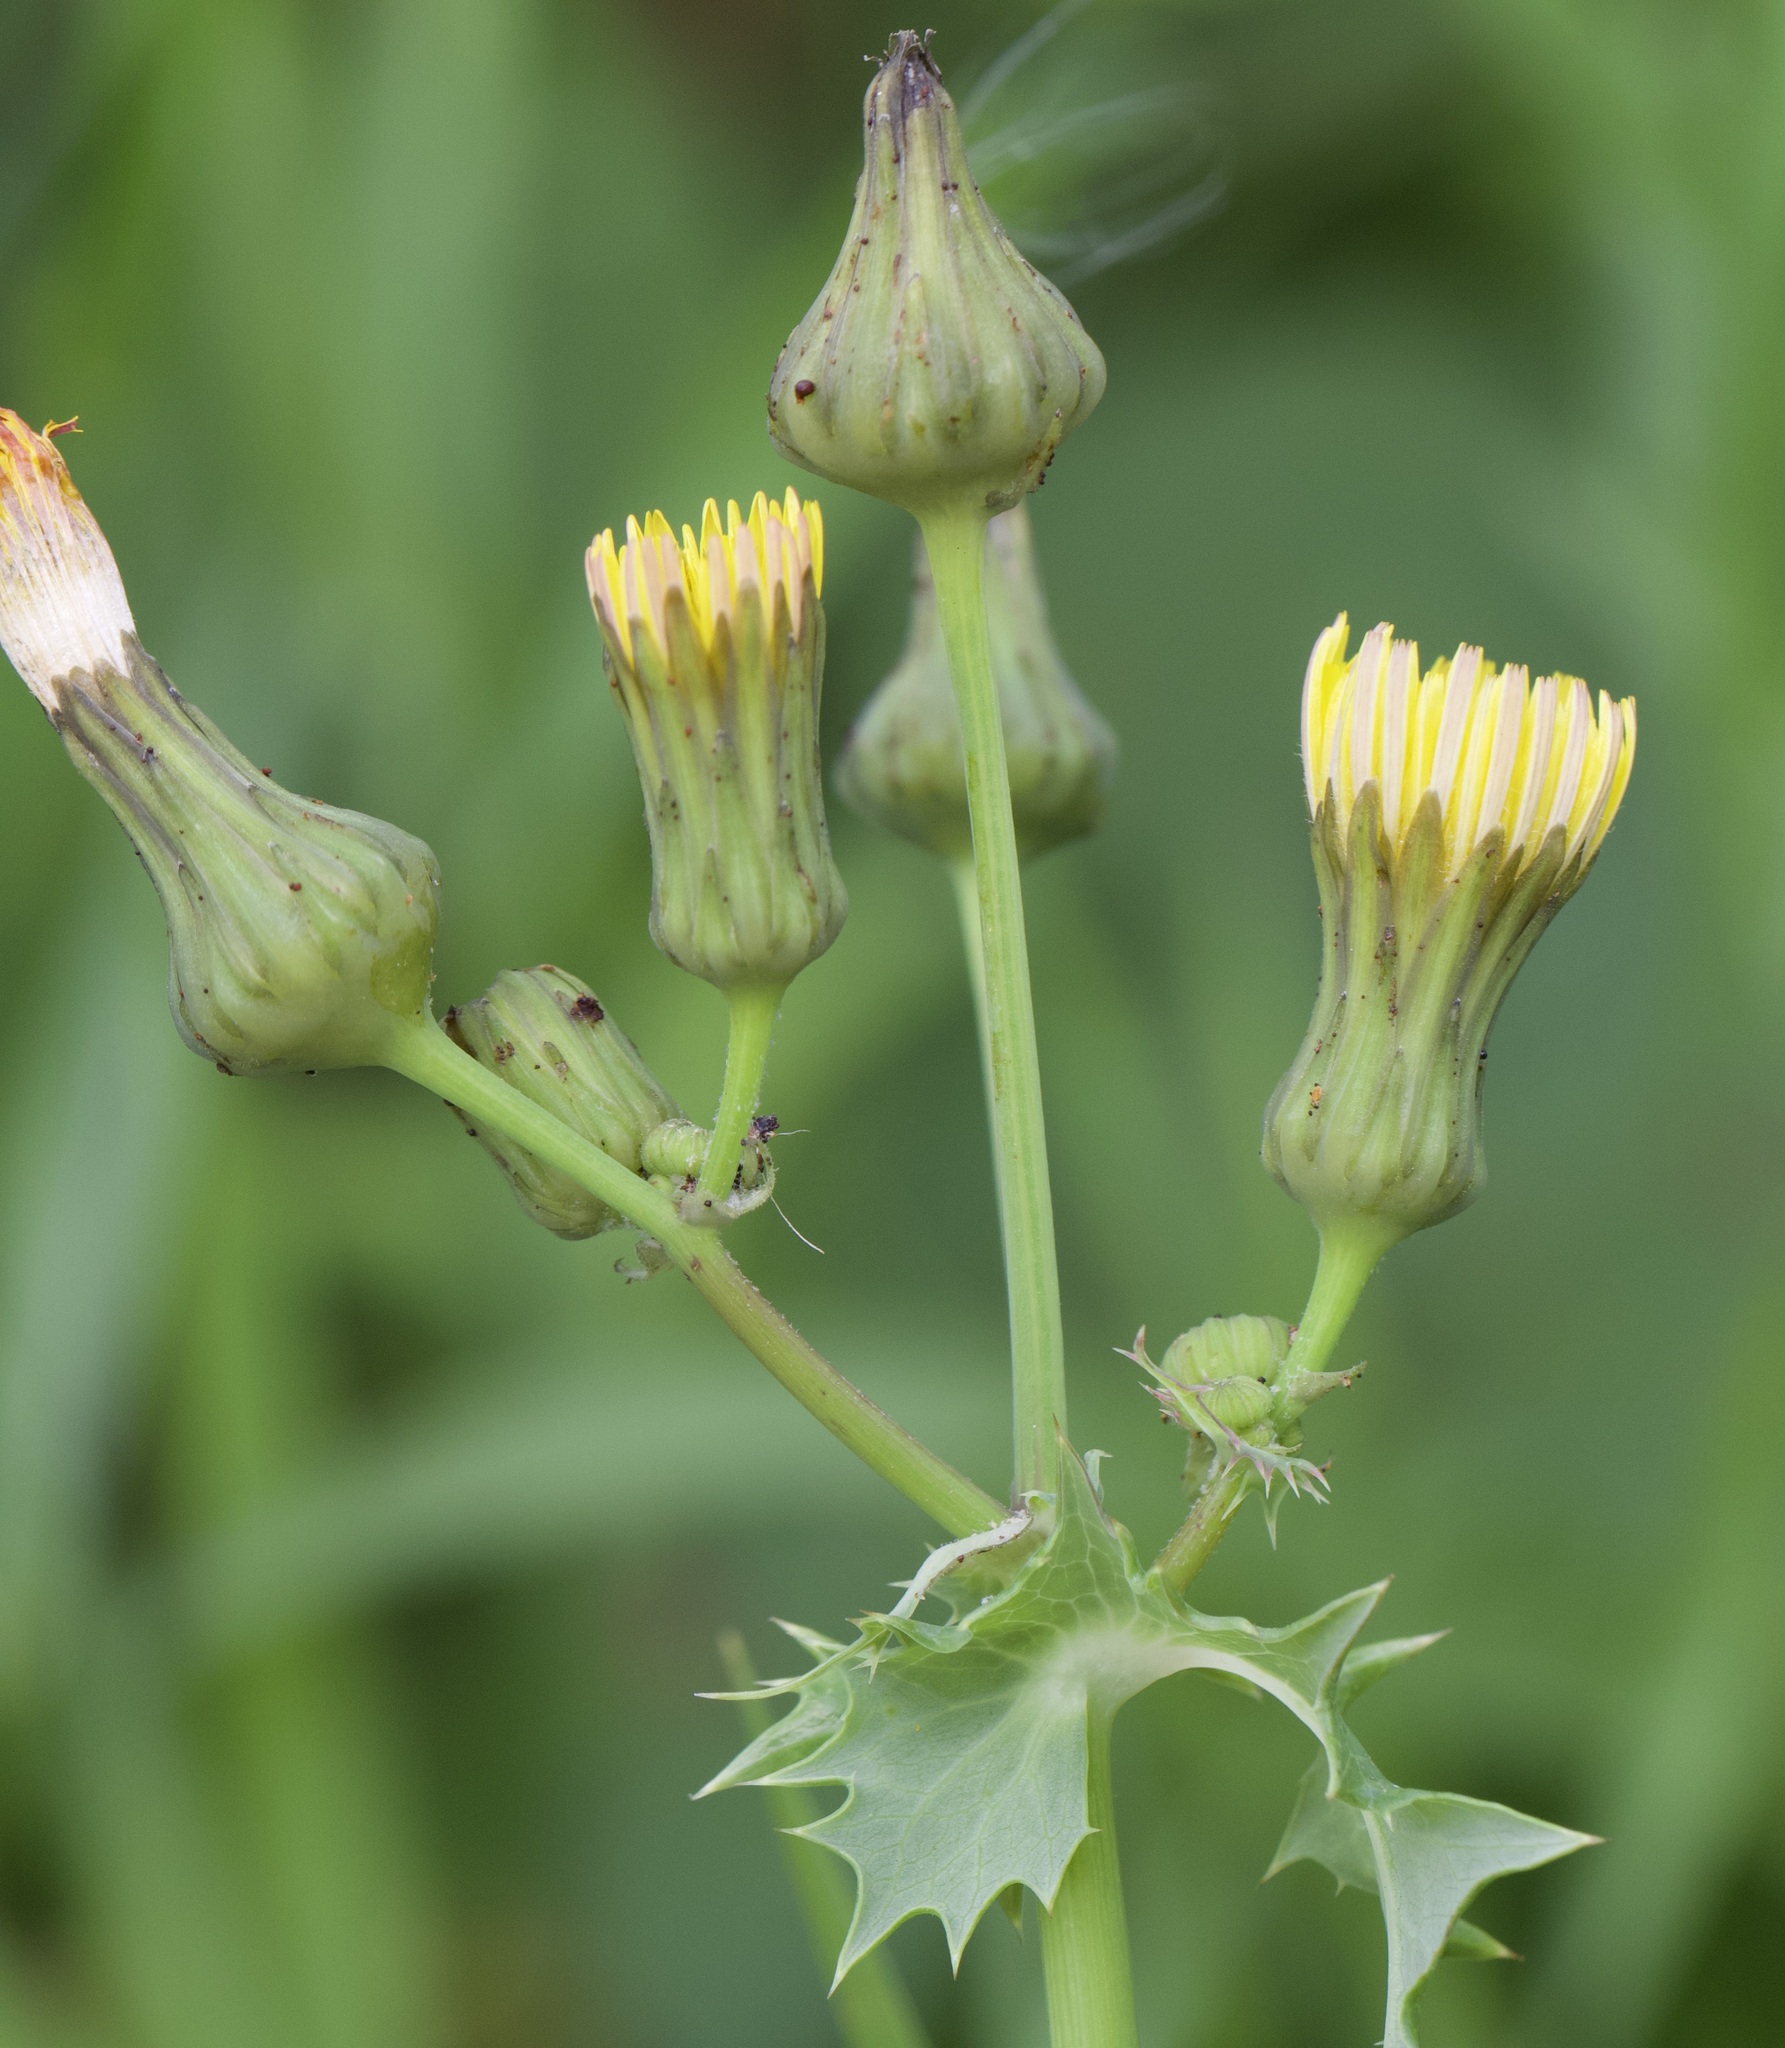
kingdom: Plantae
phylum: Tracheophyta
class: Magnoliopsida
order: Asterales
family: Asteraceae
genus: Sonchus
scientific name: Sonchus asper
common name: Prickly sow-thistle
